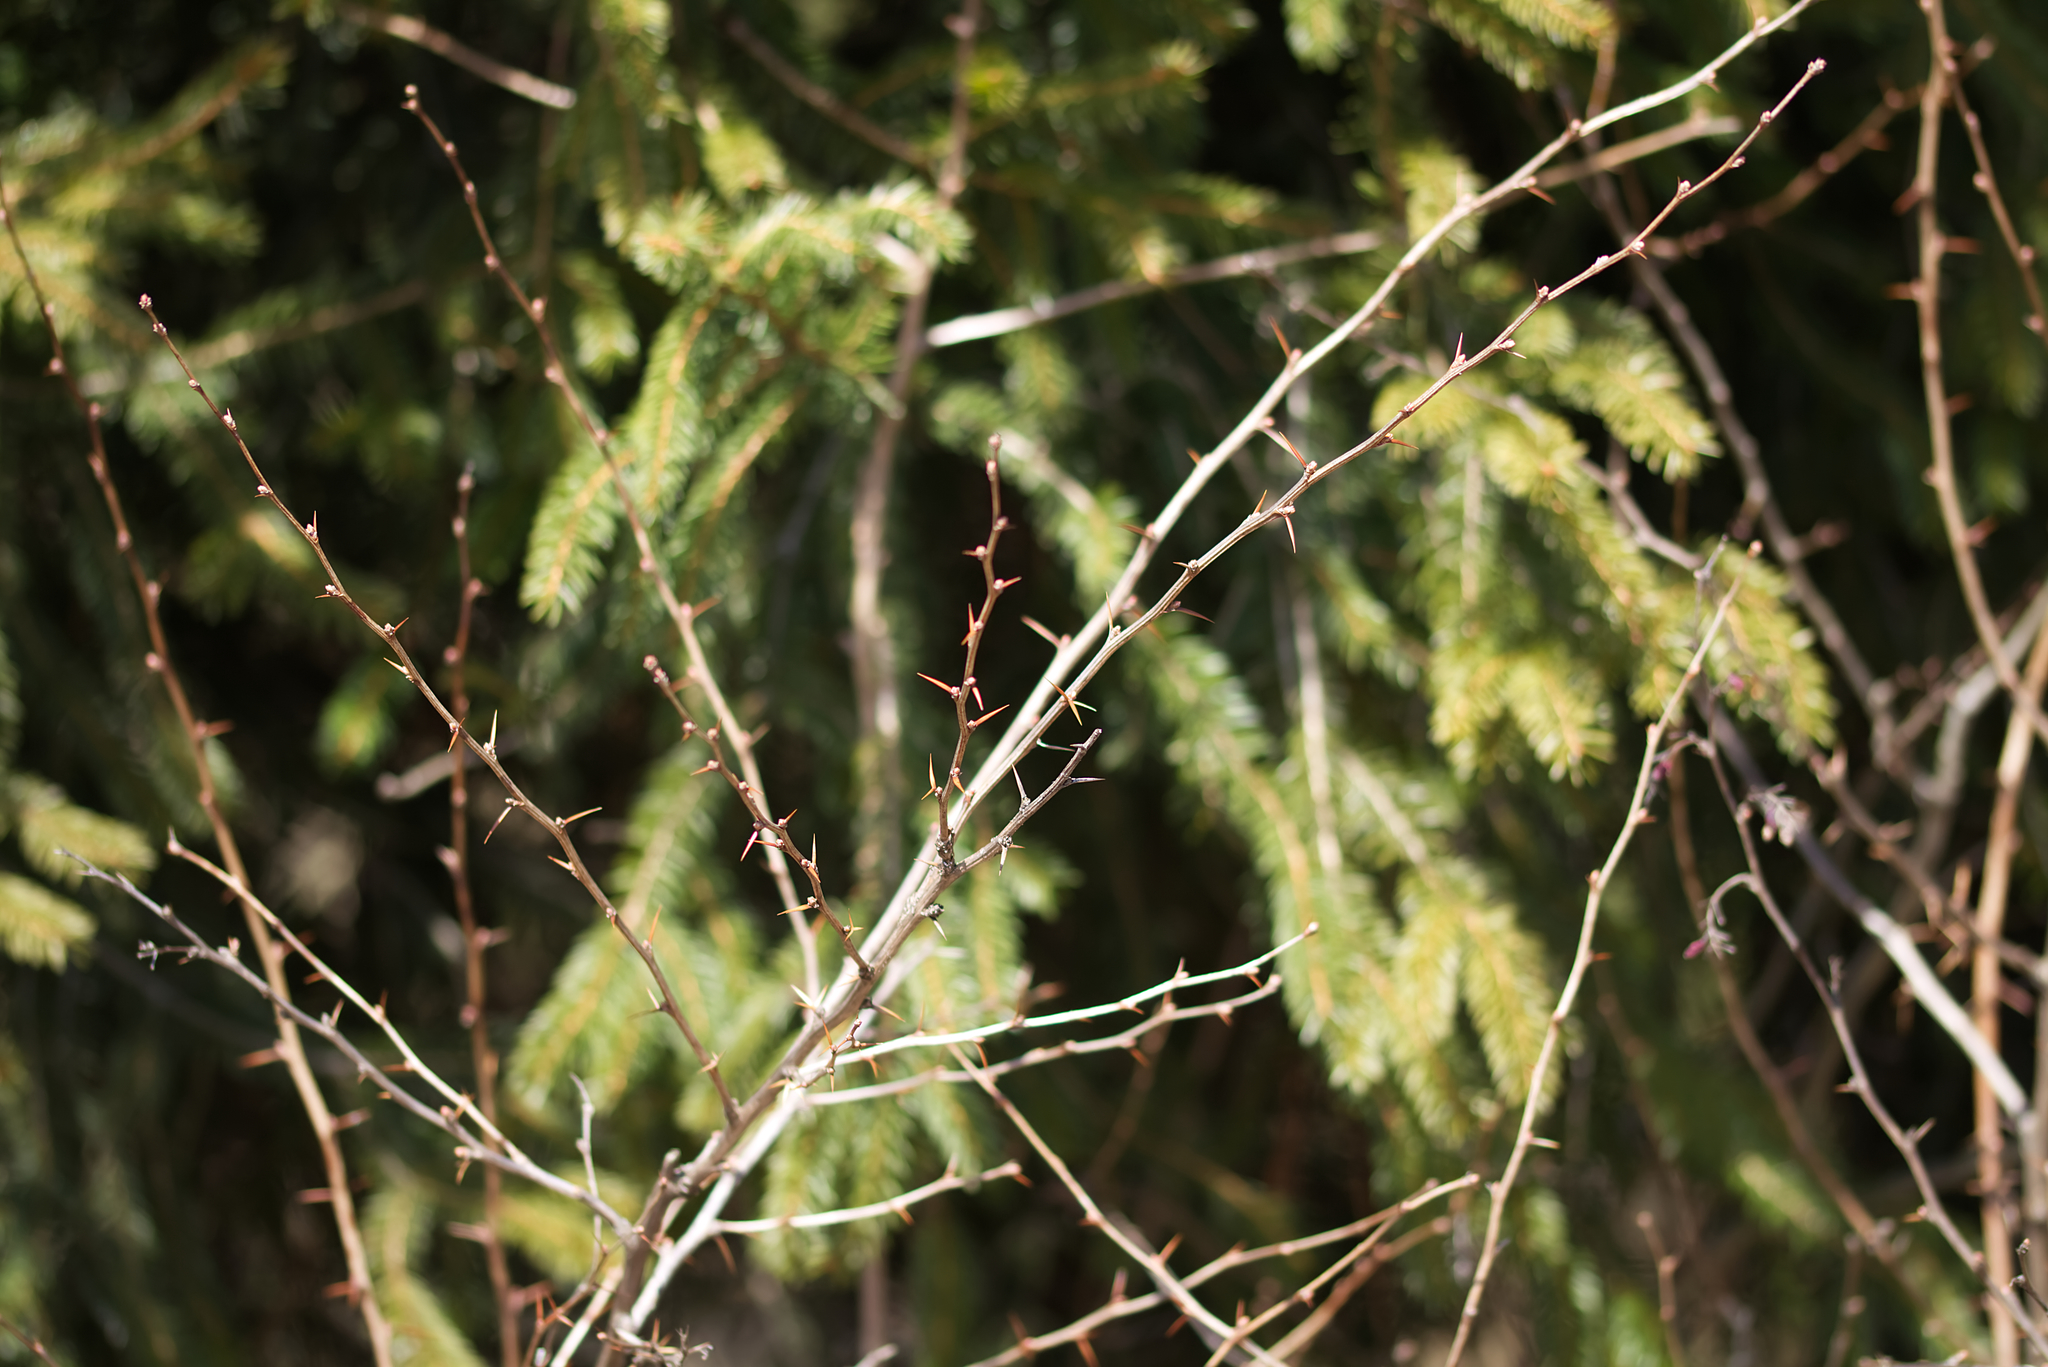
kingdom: Plantae
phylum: Tracheophyta
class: Magnoliopsida
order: Ranunculales
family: Berberidaceae
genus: Berberis
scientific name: Berberis vulgaris
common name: Barberry
